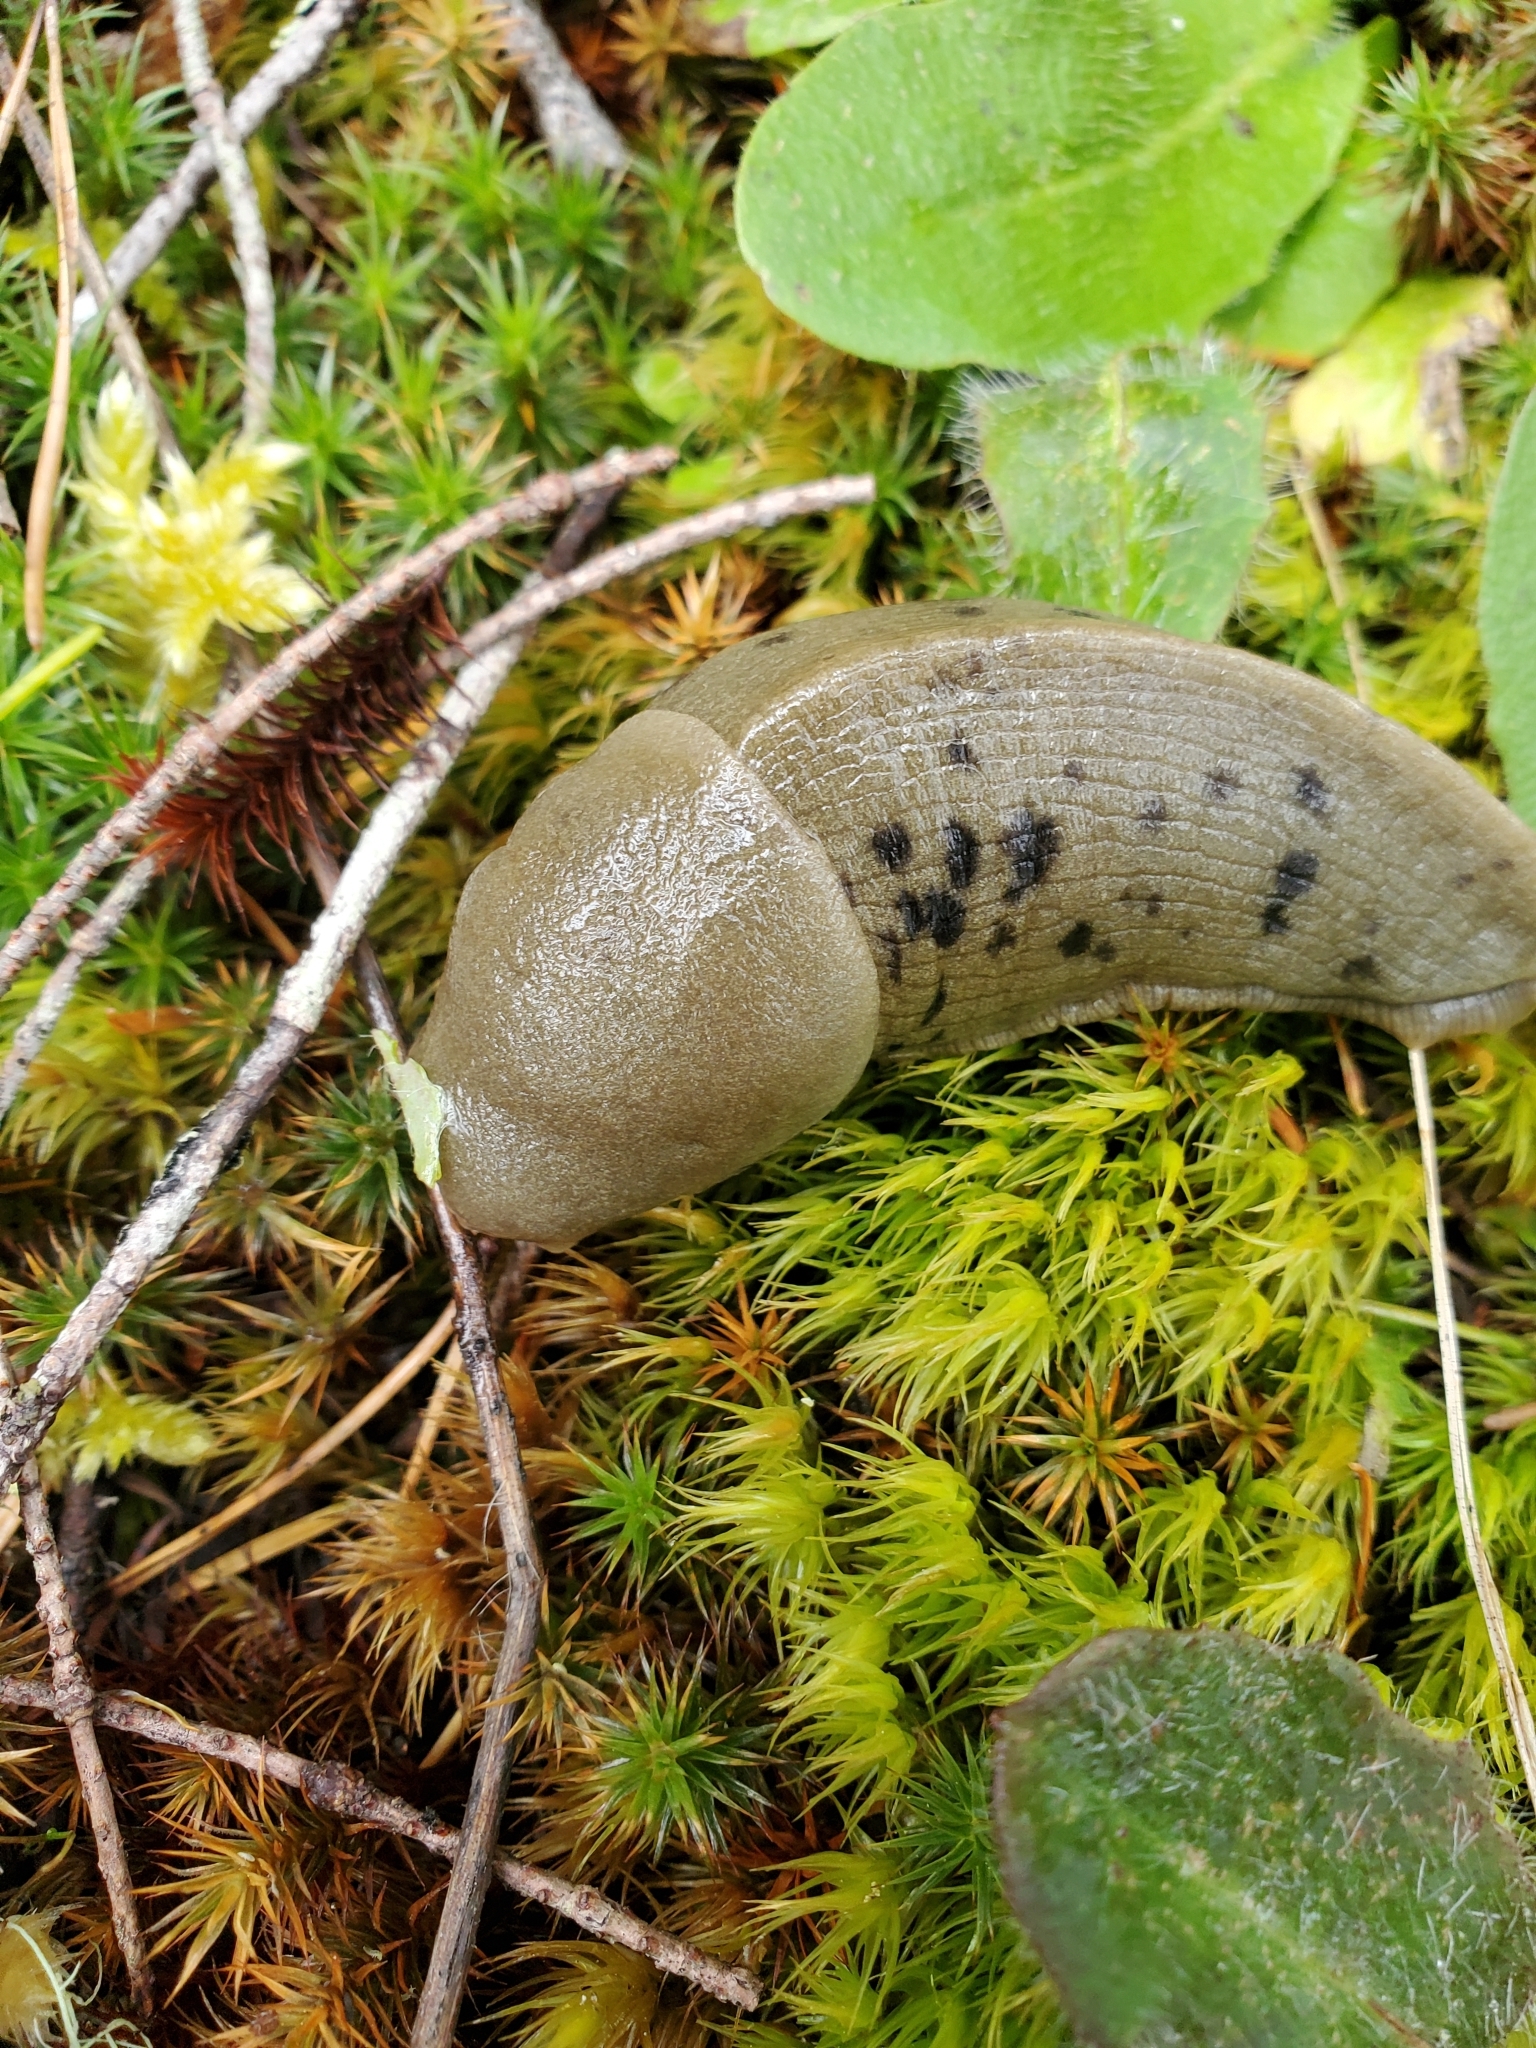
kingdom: Animalia
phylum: Mollusca
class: Gastropoda
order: Stylommatophora
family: Ariolimacidae
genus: Ariolimax
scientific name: Ariolimax columbianus
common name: Pacific banana slug
